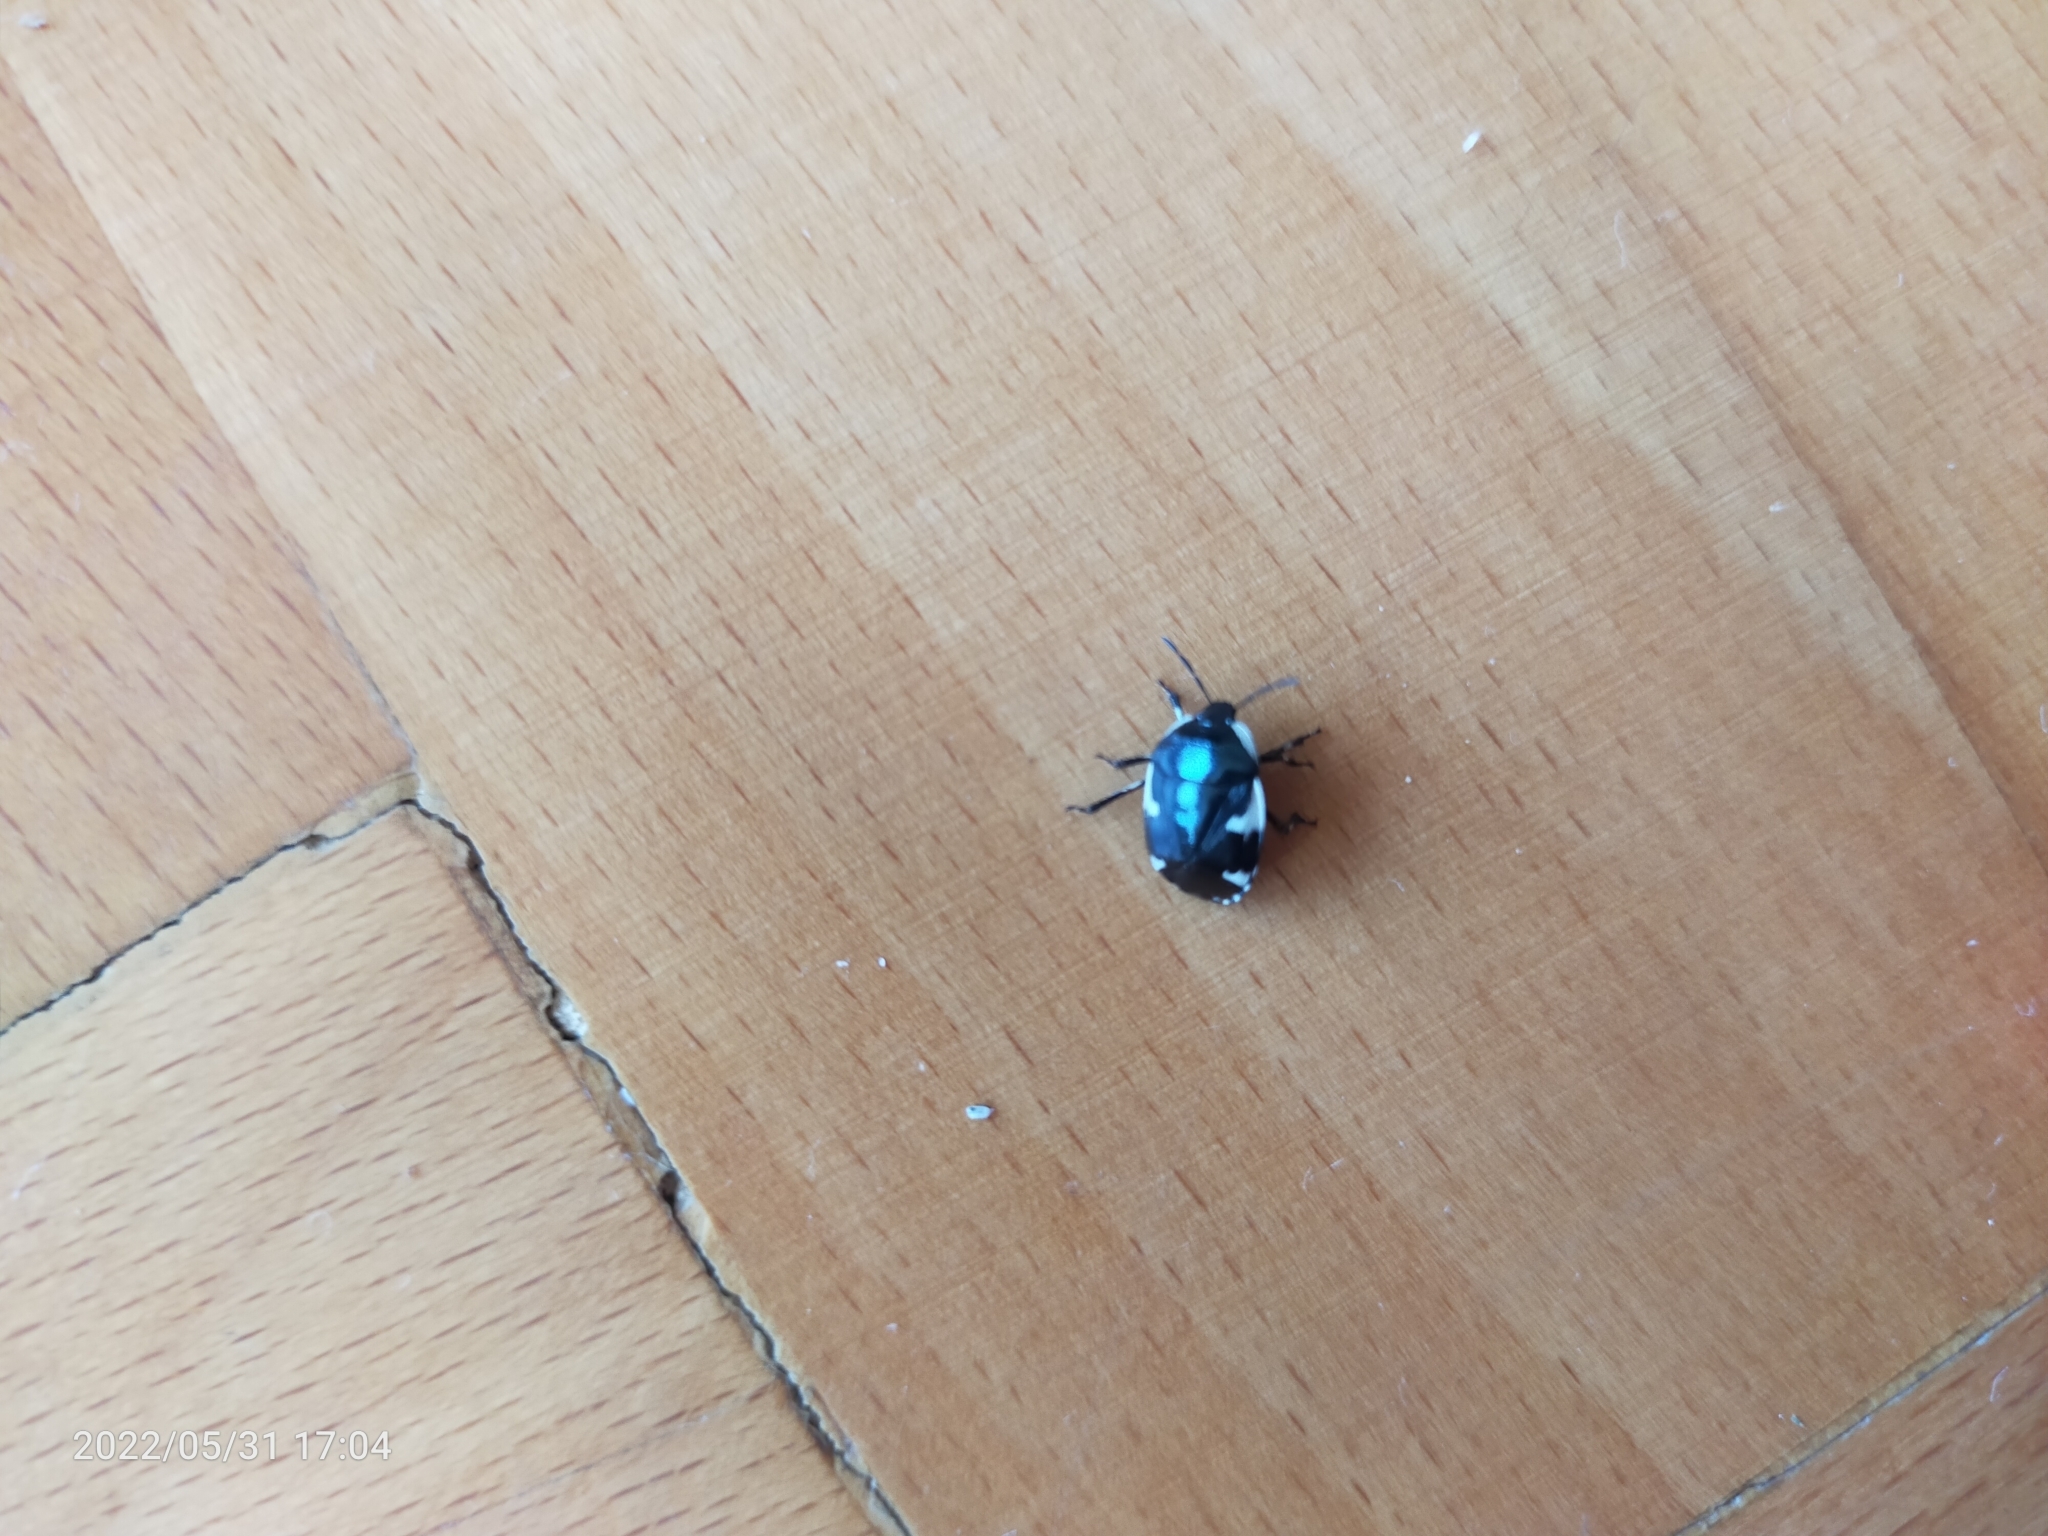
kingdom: Animalia
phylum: Arthropoda
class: Insecta
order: Hemiptera
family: Cydnidae
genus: Tritomegas
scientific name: Tritomegas sexmaculatus
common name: Rambur's pied shieldbug
